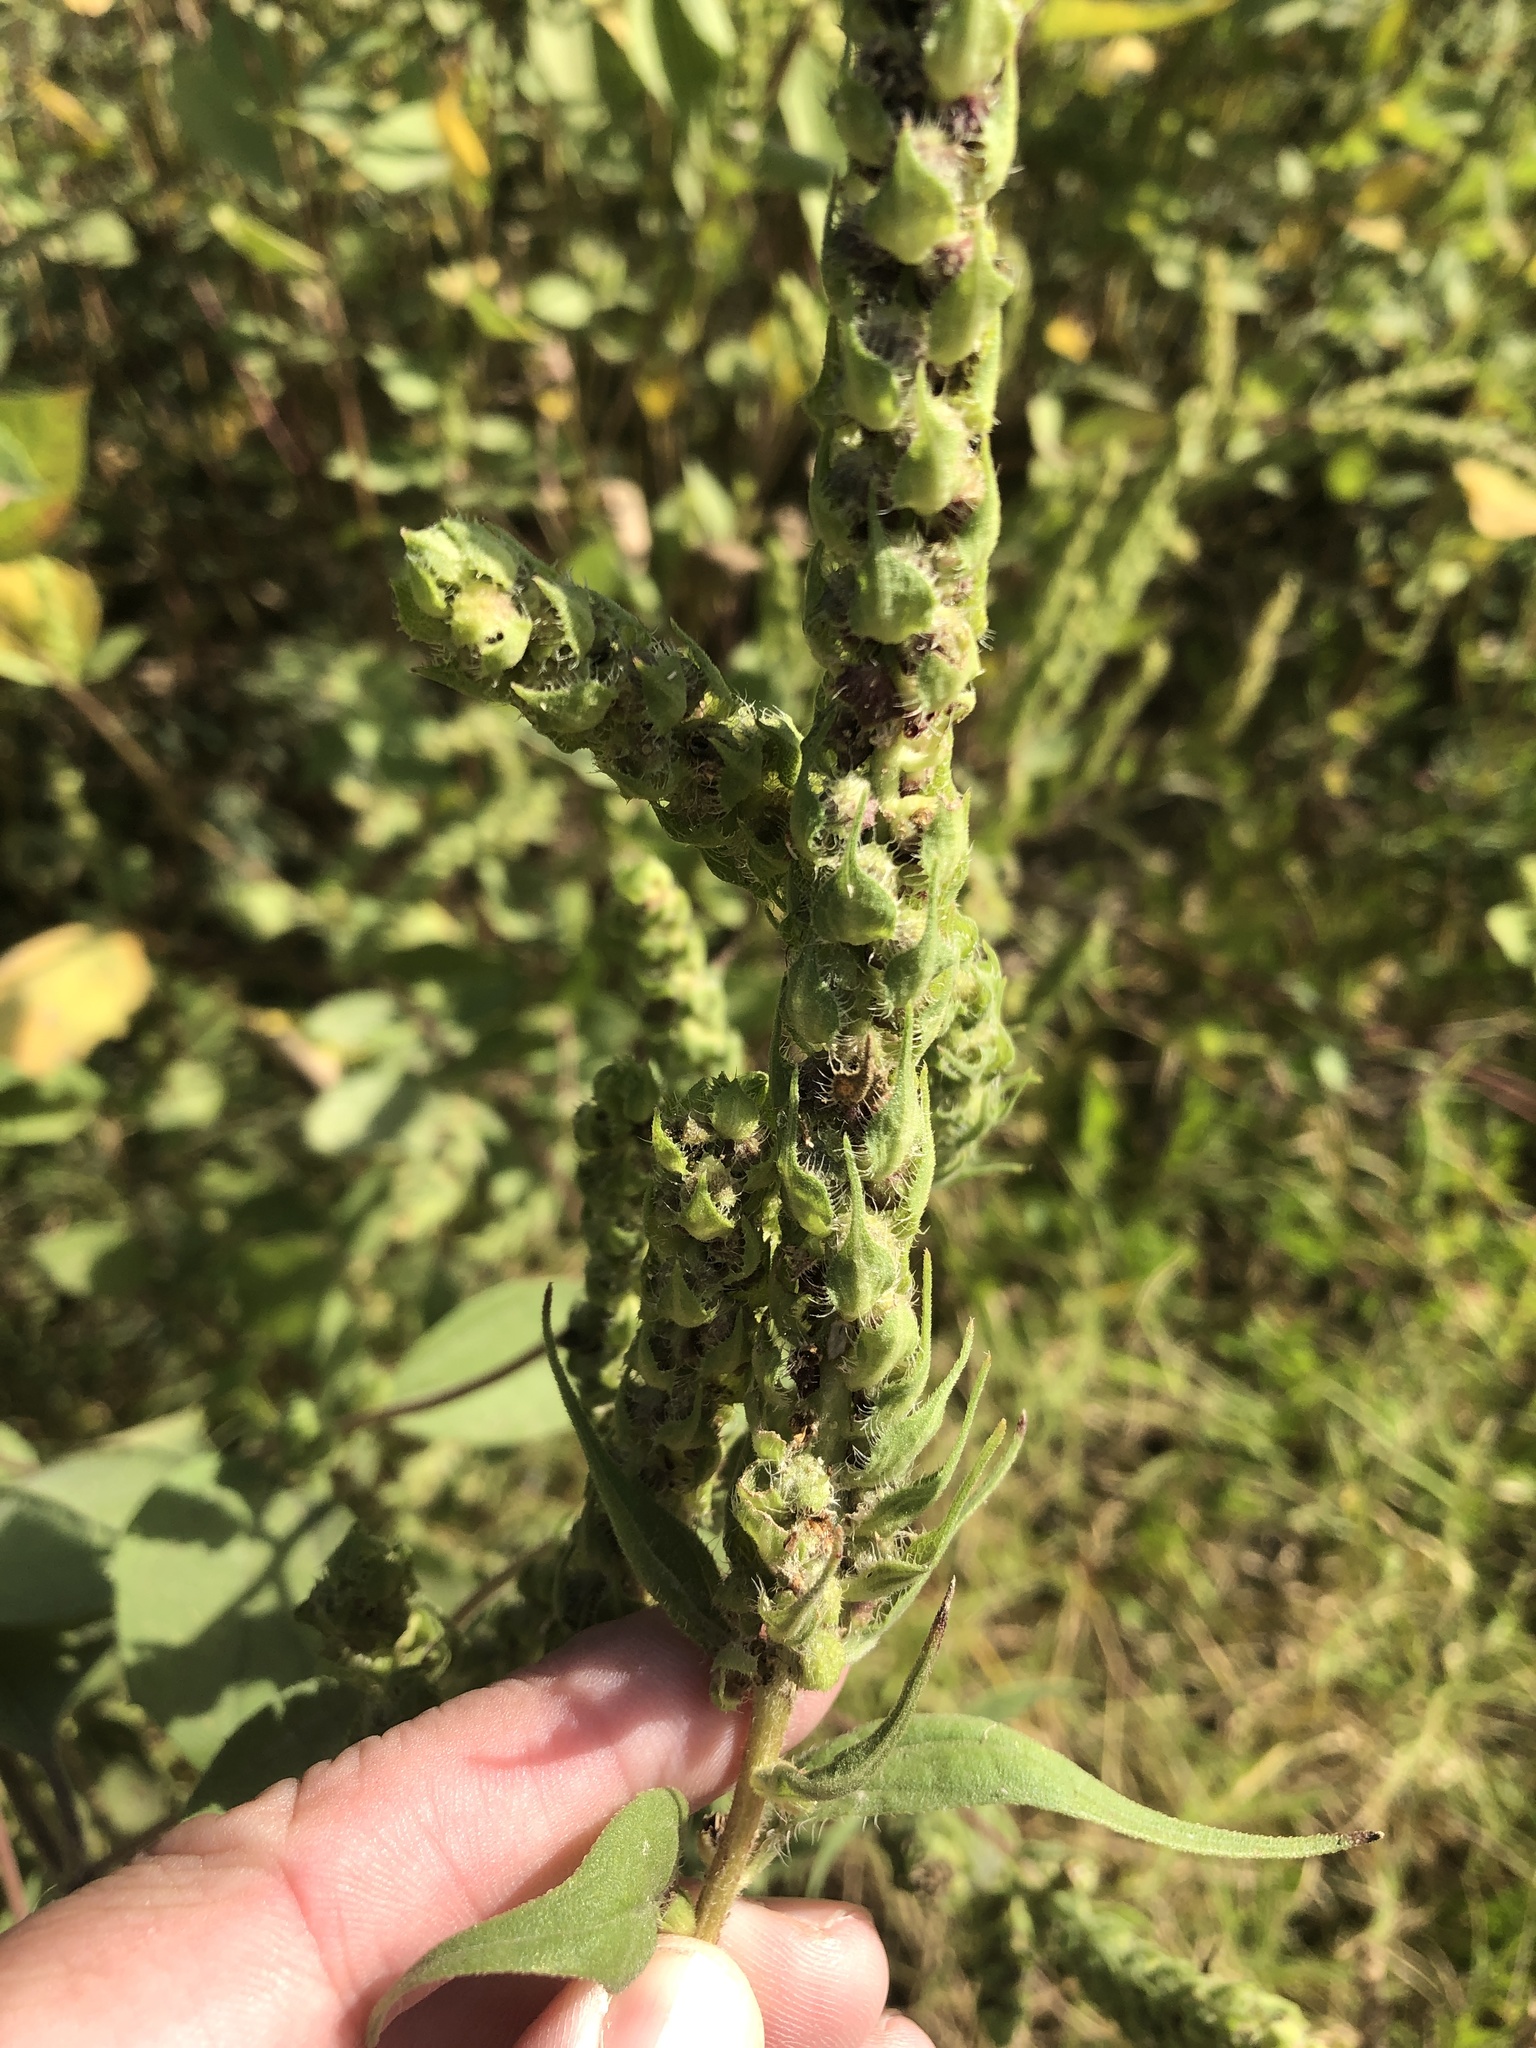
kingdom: Plantae
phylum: Tracheophyta
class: Magnoliopsida
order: Asterales
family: Asteraceae
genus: Iva
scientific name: Iva annua
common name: Marsh-elder
